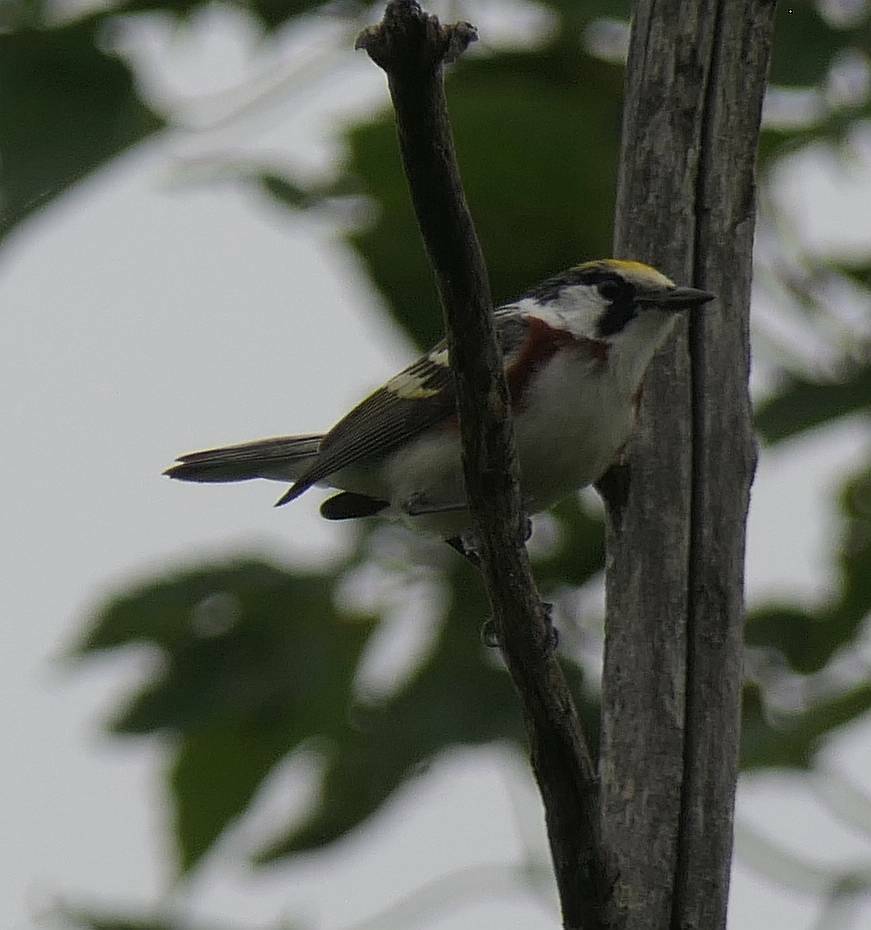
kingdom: Animalia
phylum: Chordata
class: Aves
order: Passeriformes
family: Parulidae
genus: Setophaga
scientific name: Setophaga pensylvanica
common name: Chestnut-sided warbler
